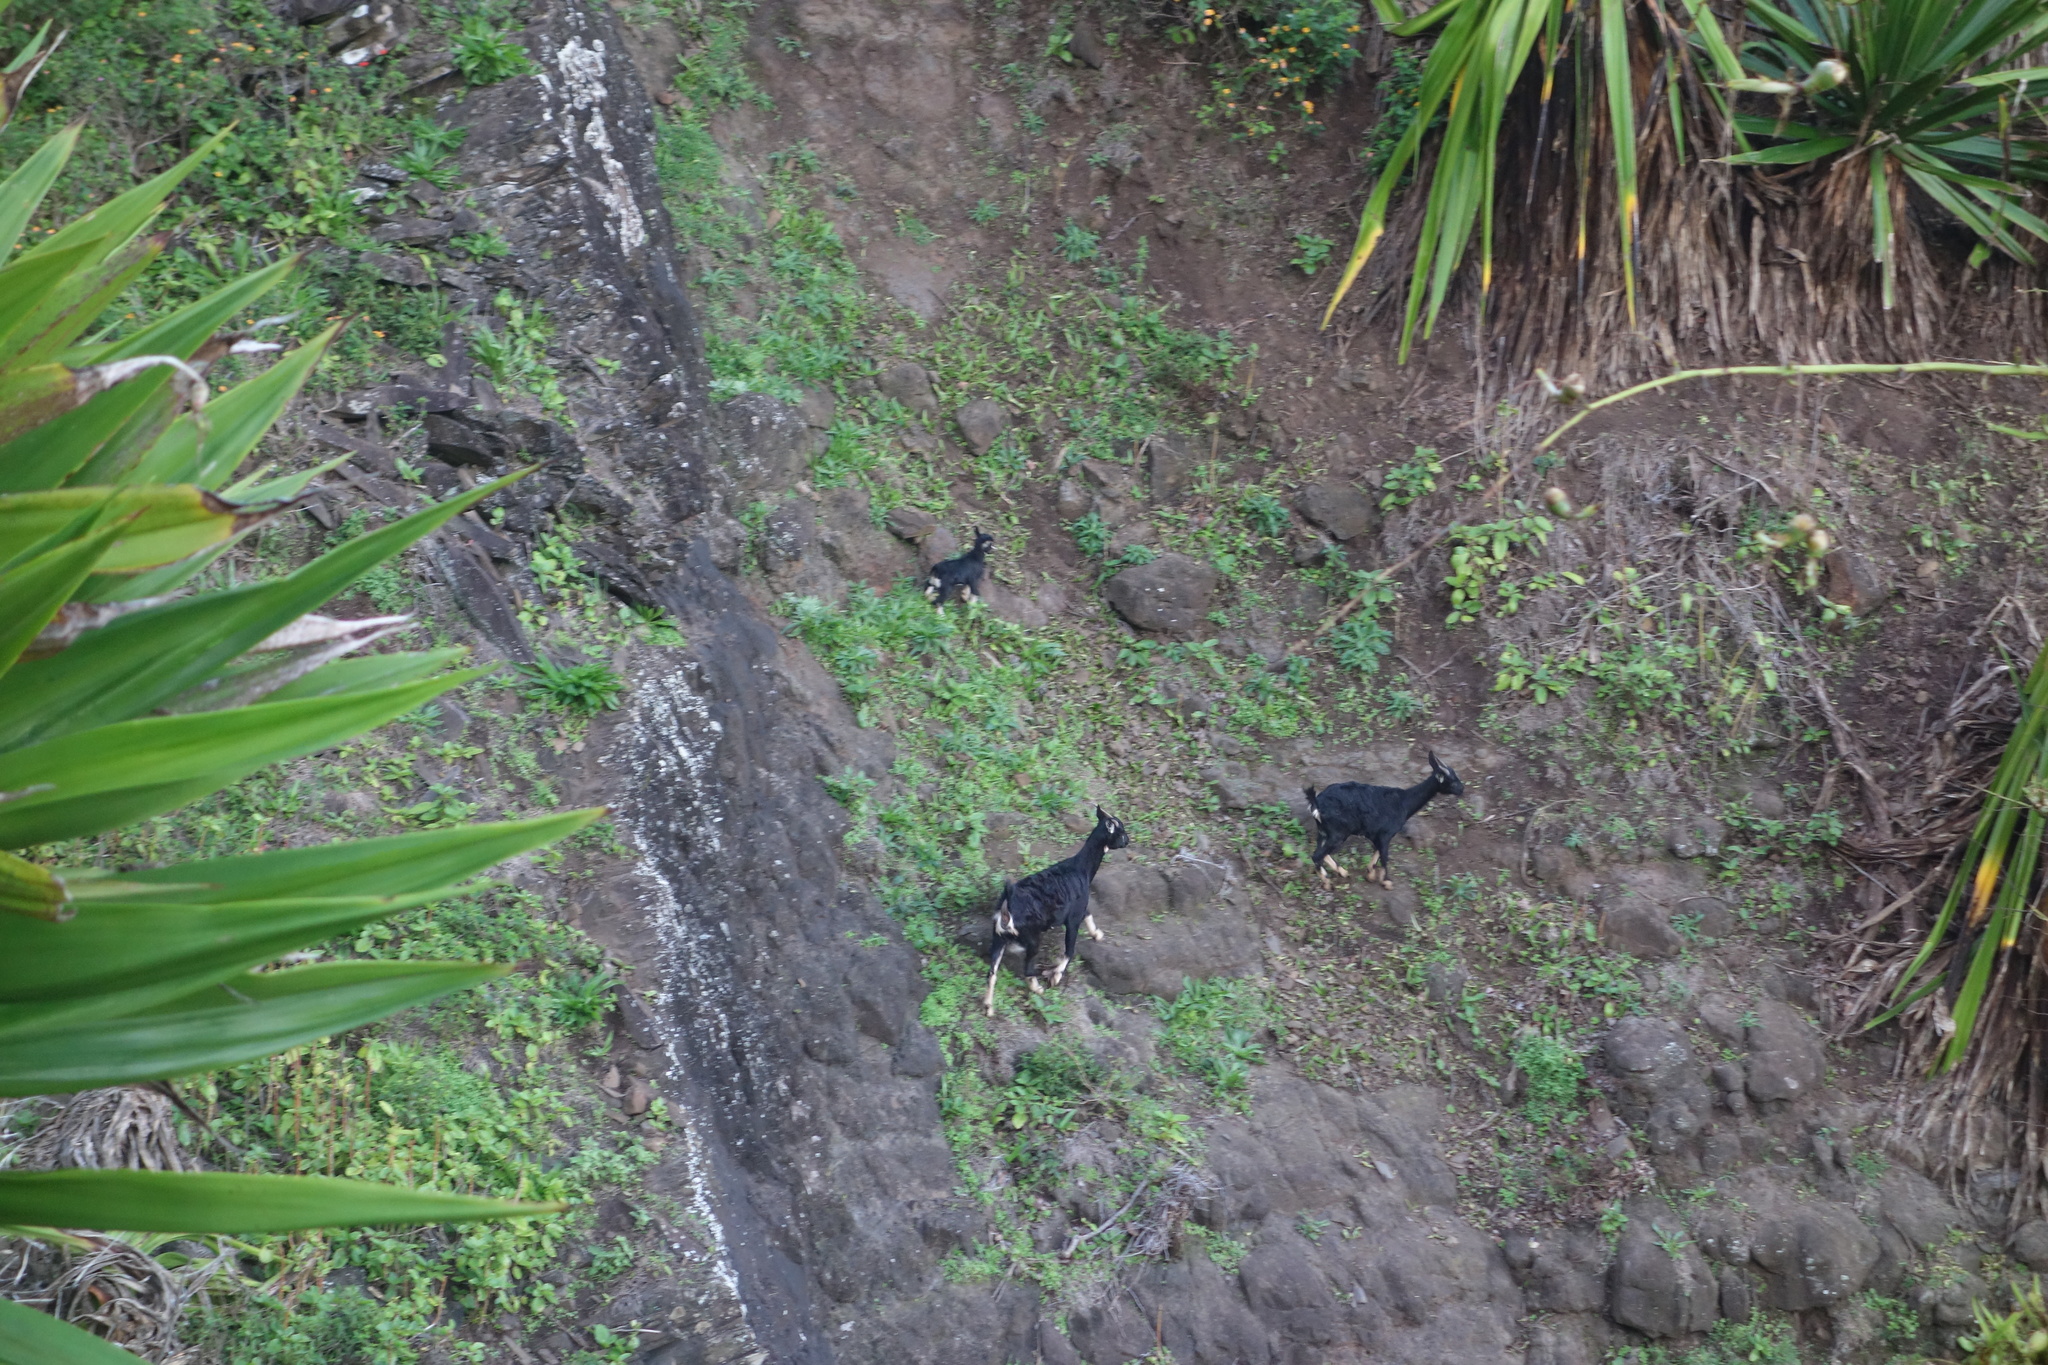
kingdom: Animalia
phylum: Chordata
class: Mammalia
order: Artiodactyla
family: Bovidae
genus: Capra
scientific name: Capra hircus
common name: Domestic goat
